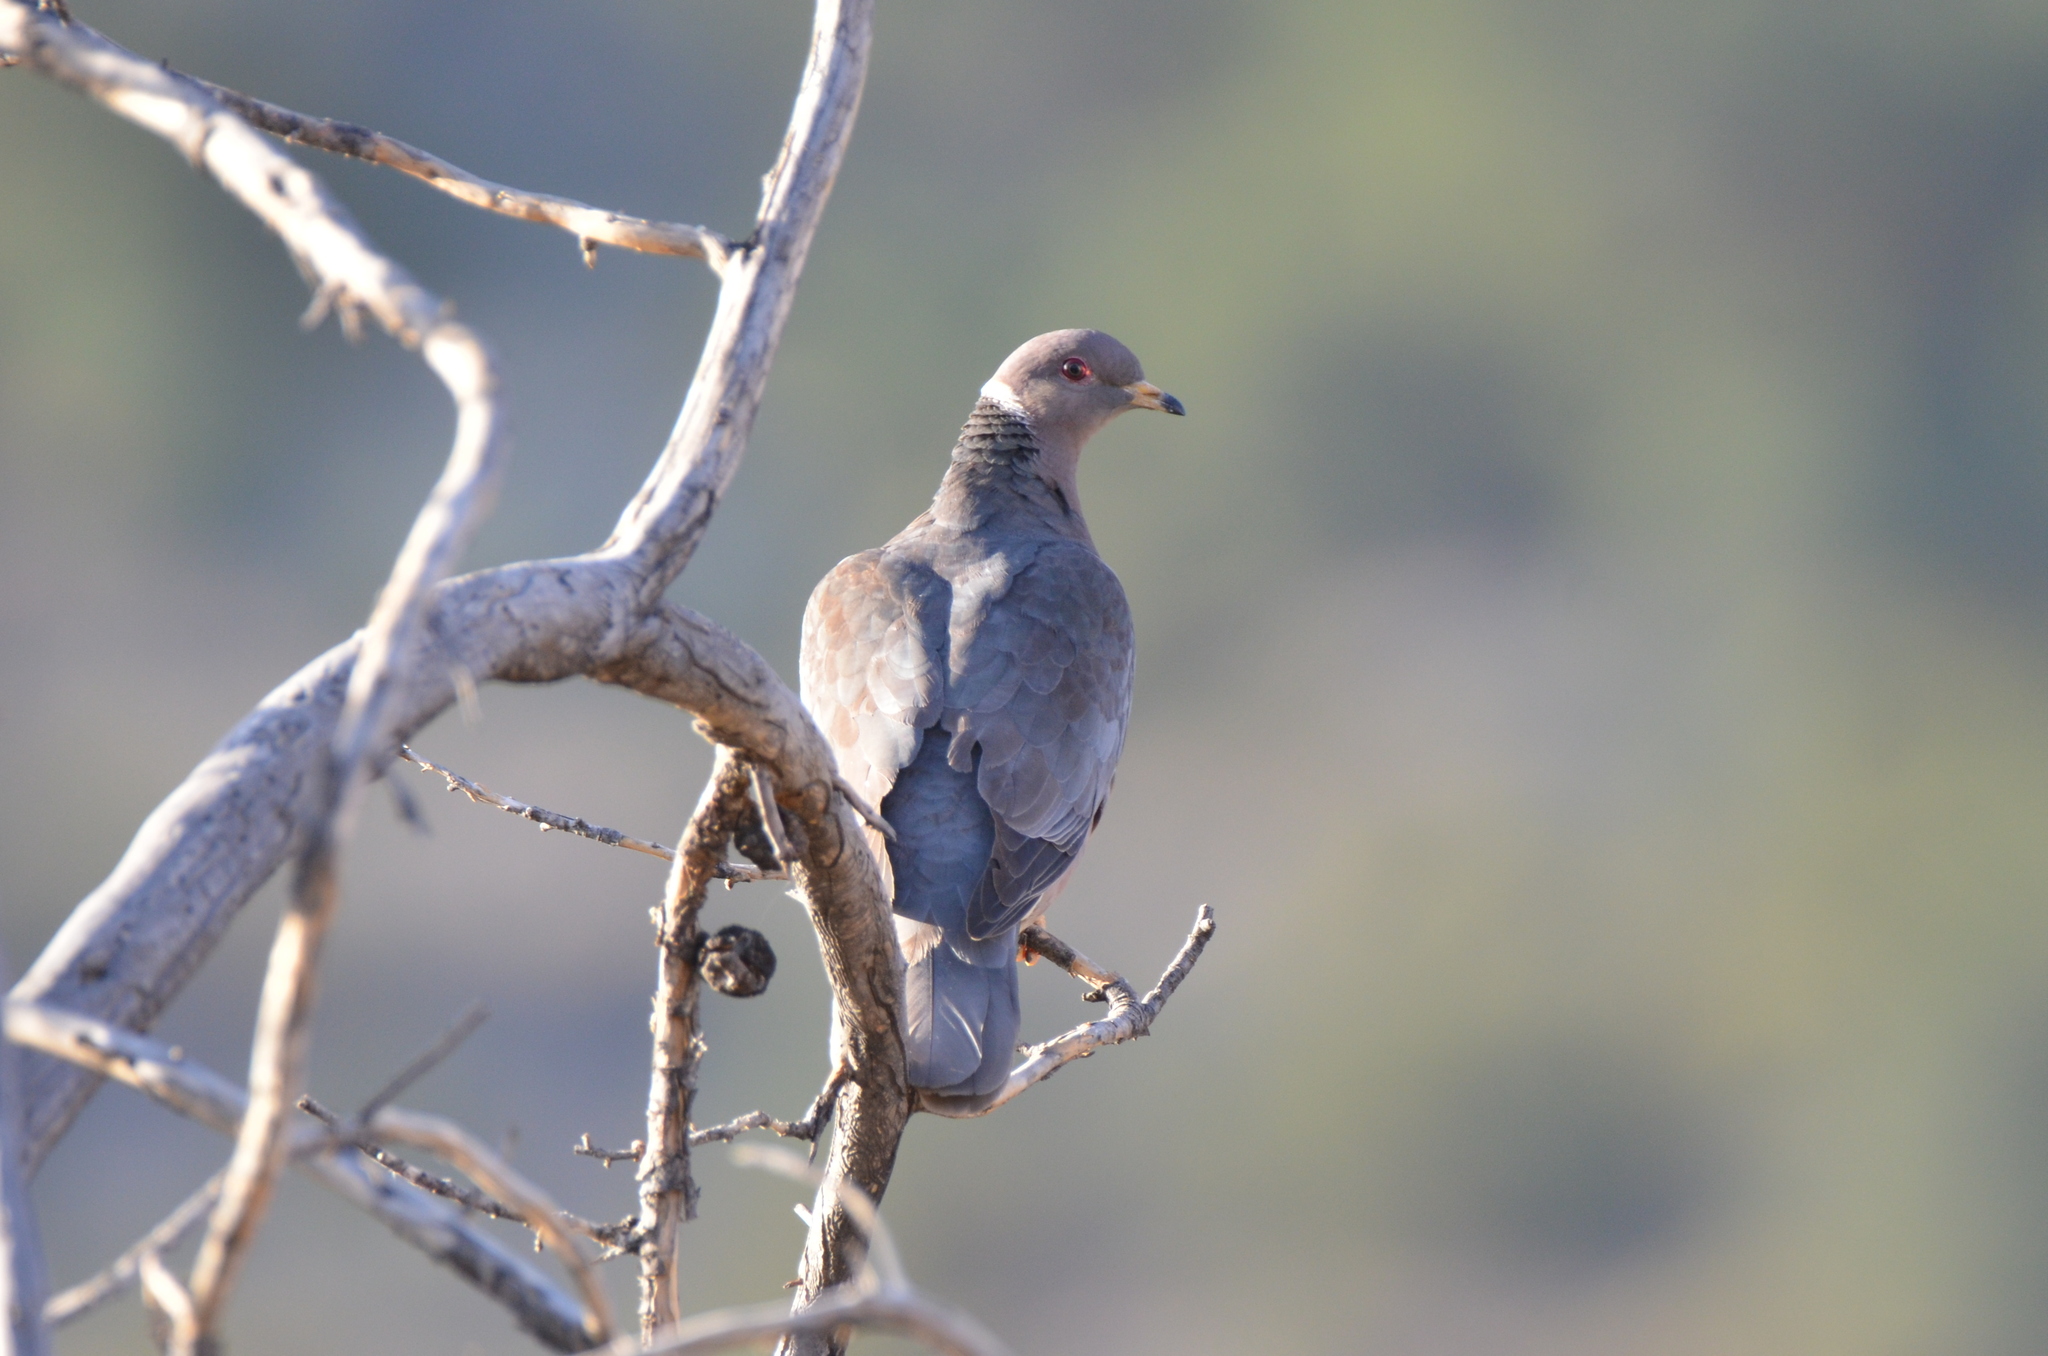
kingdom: Animalia
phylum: Chordata
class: Aves
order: Columbiformes
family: Columbidae
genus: Patagioenas
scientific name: Patagioenas fasciata
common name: Band-tailed pigeon
